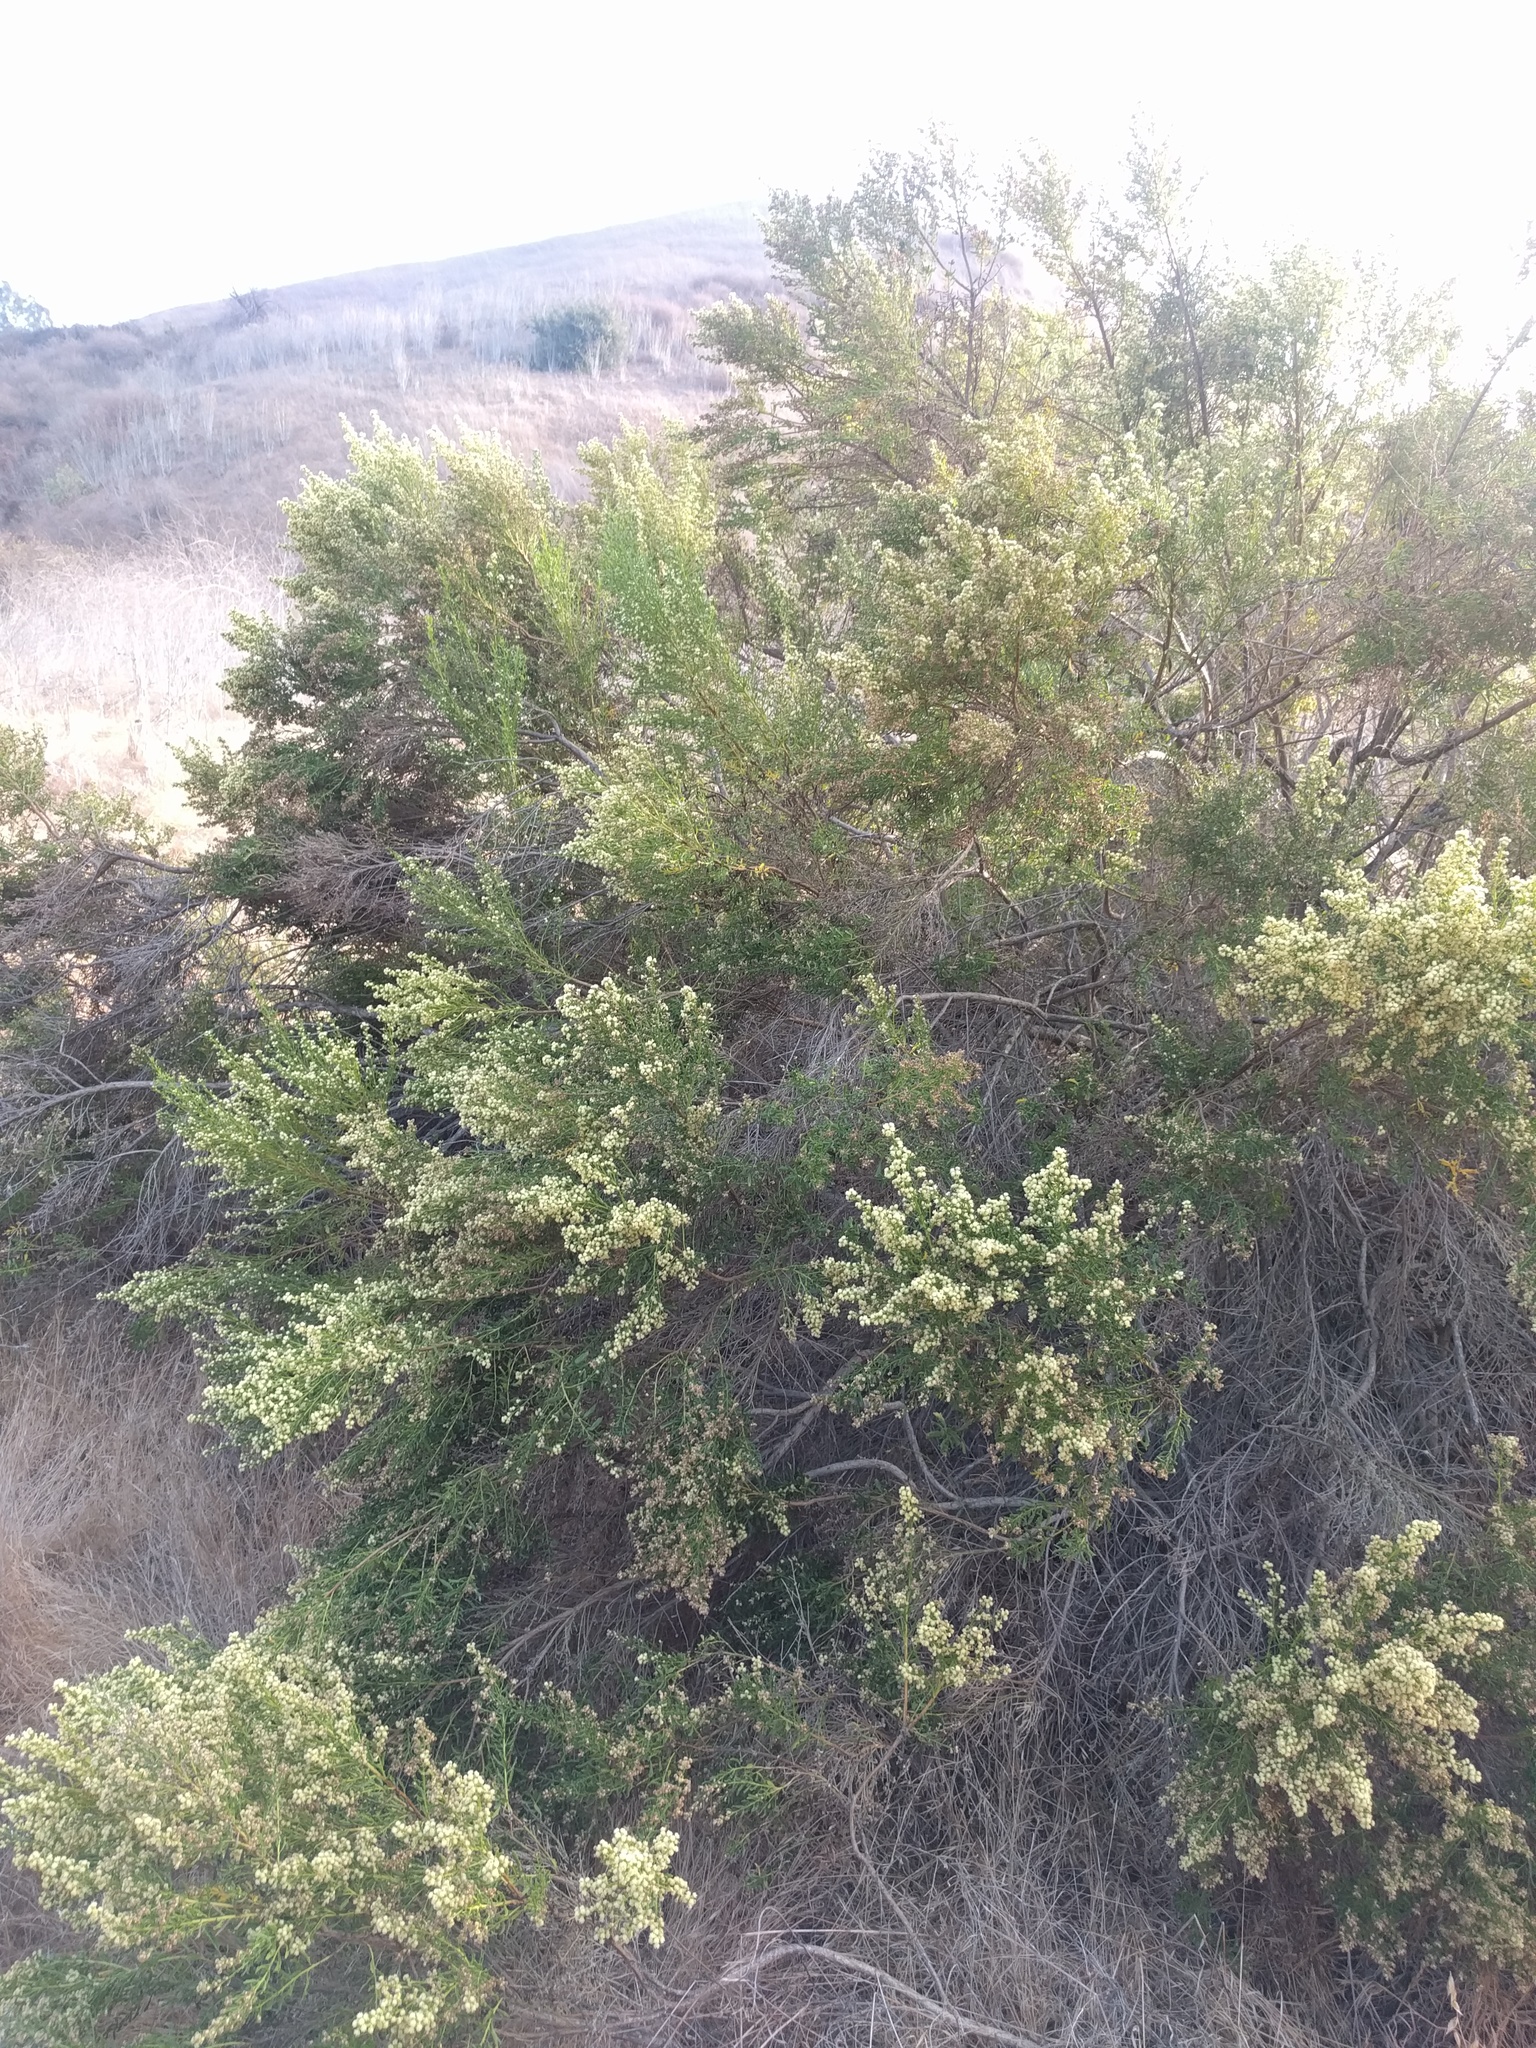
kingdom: Plantae
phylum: Tracheophyta
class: Magnoliopsida
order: Asterales
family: Asteraceae
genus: Baccharis
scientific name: Baccharis pilularis
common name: Coyotebrush
